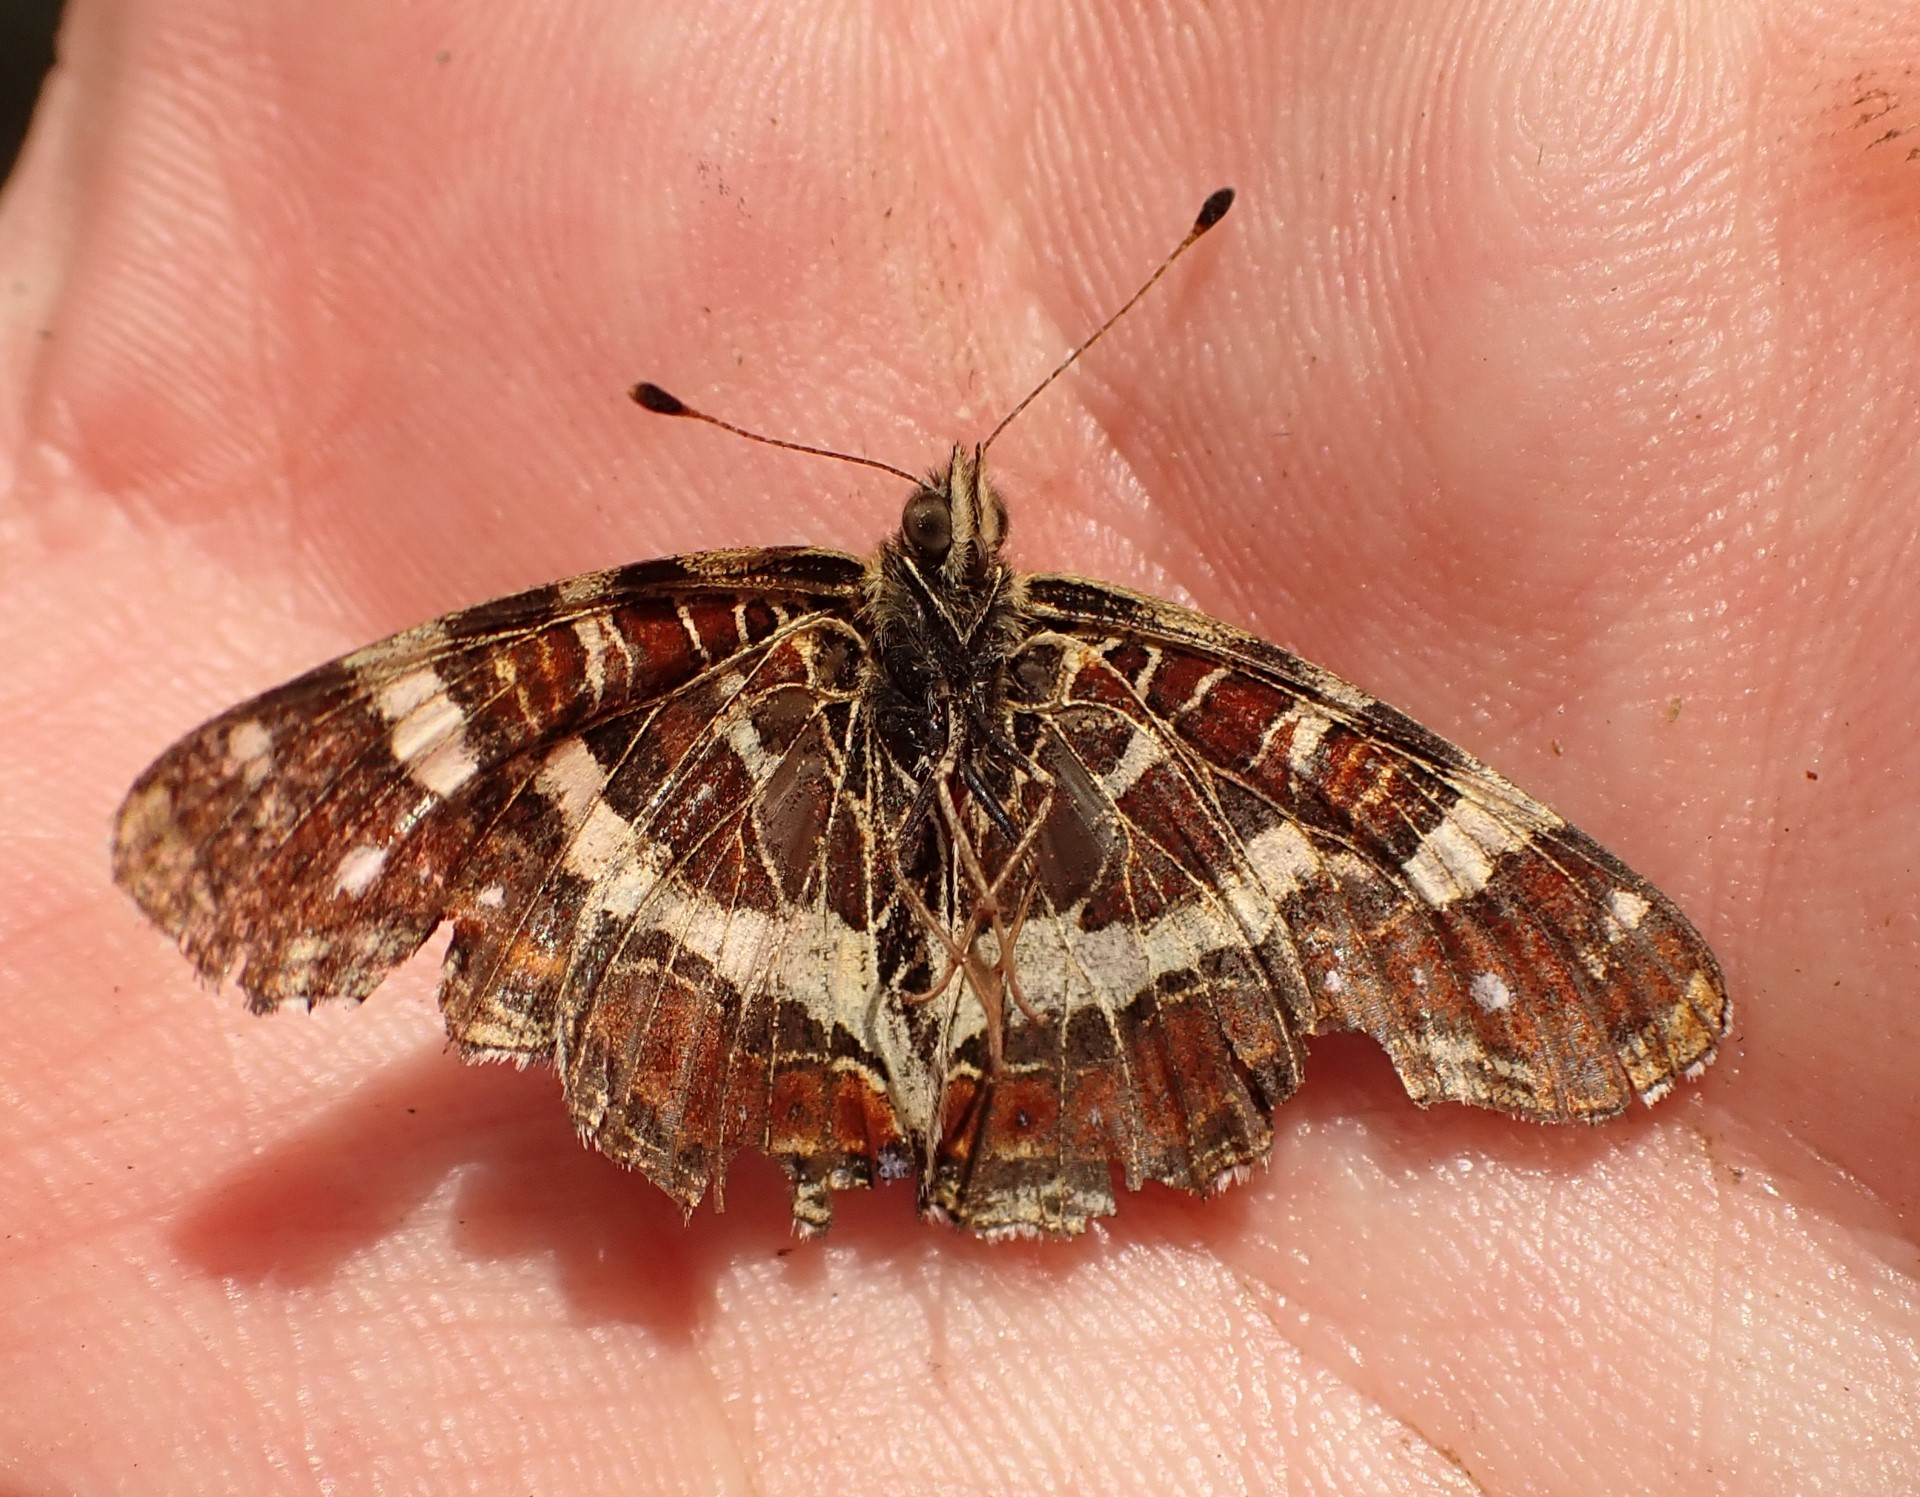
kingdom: Animalia
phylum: Arthropoda
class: Insecta
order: Lepidoptera
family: Nymphalidae
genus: Araschnia
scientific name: Araschnia levana
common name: Map butterfly
